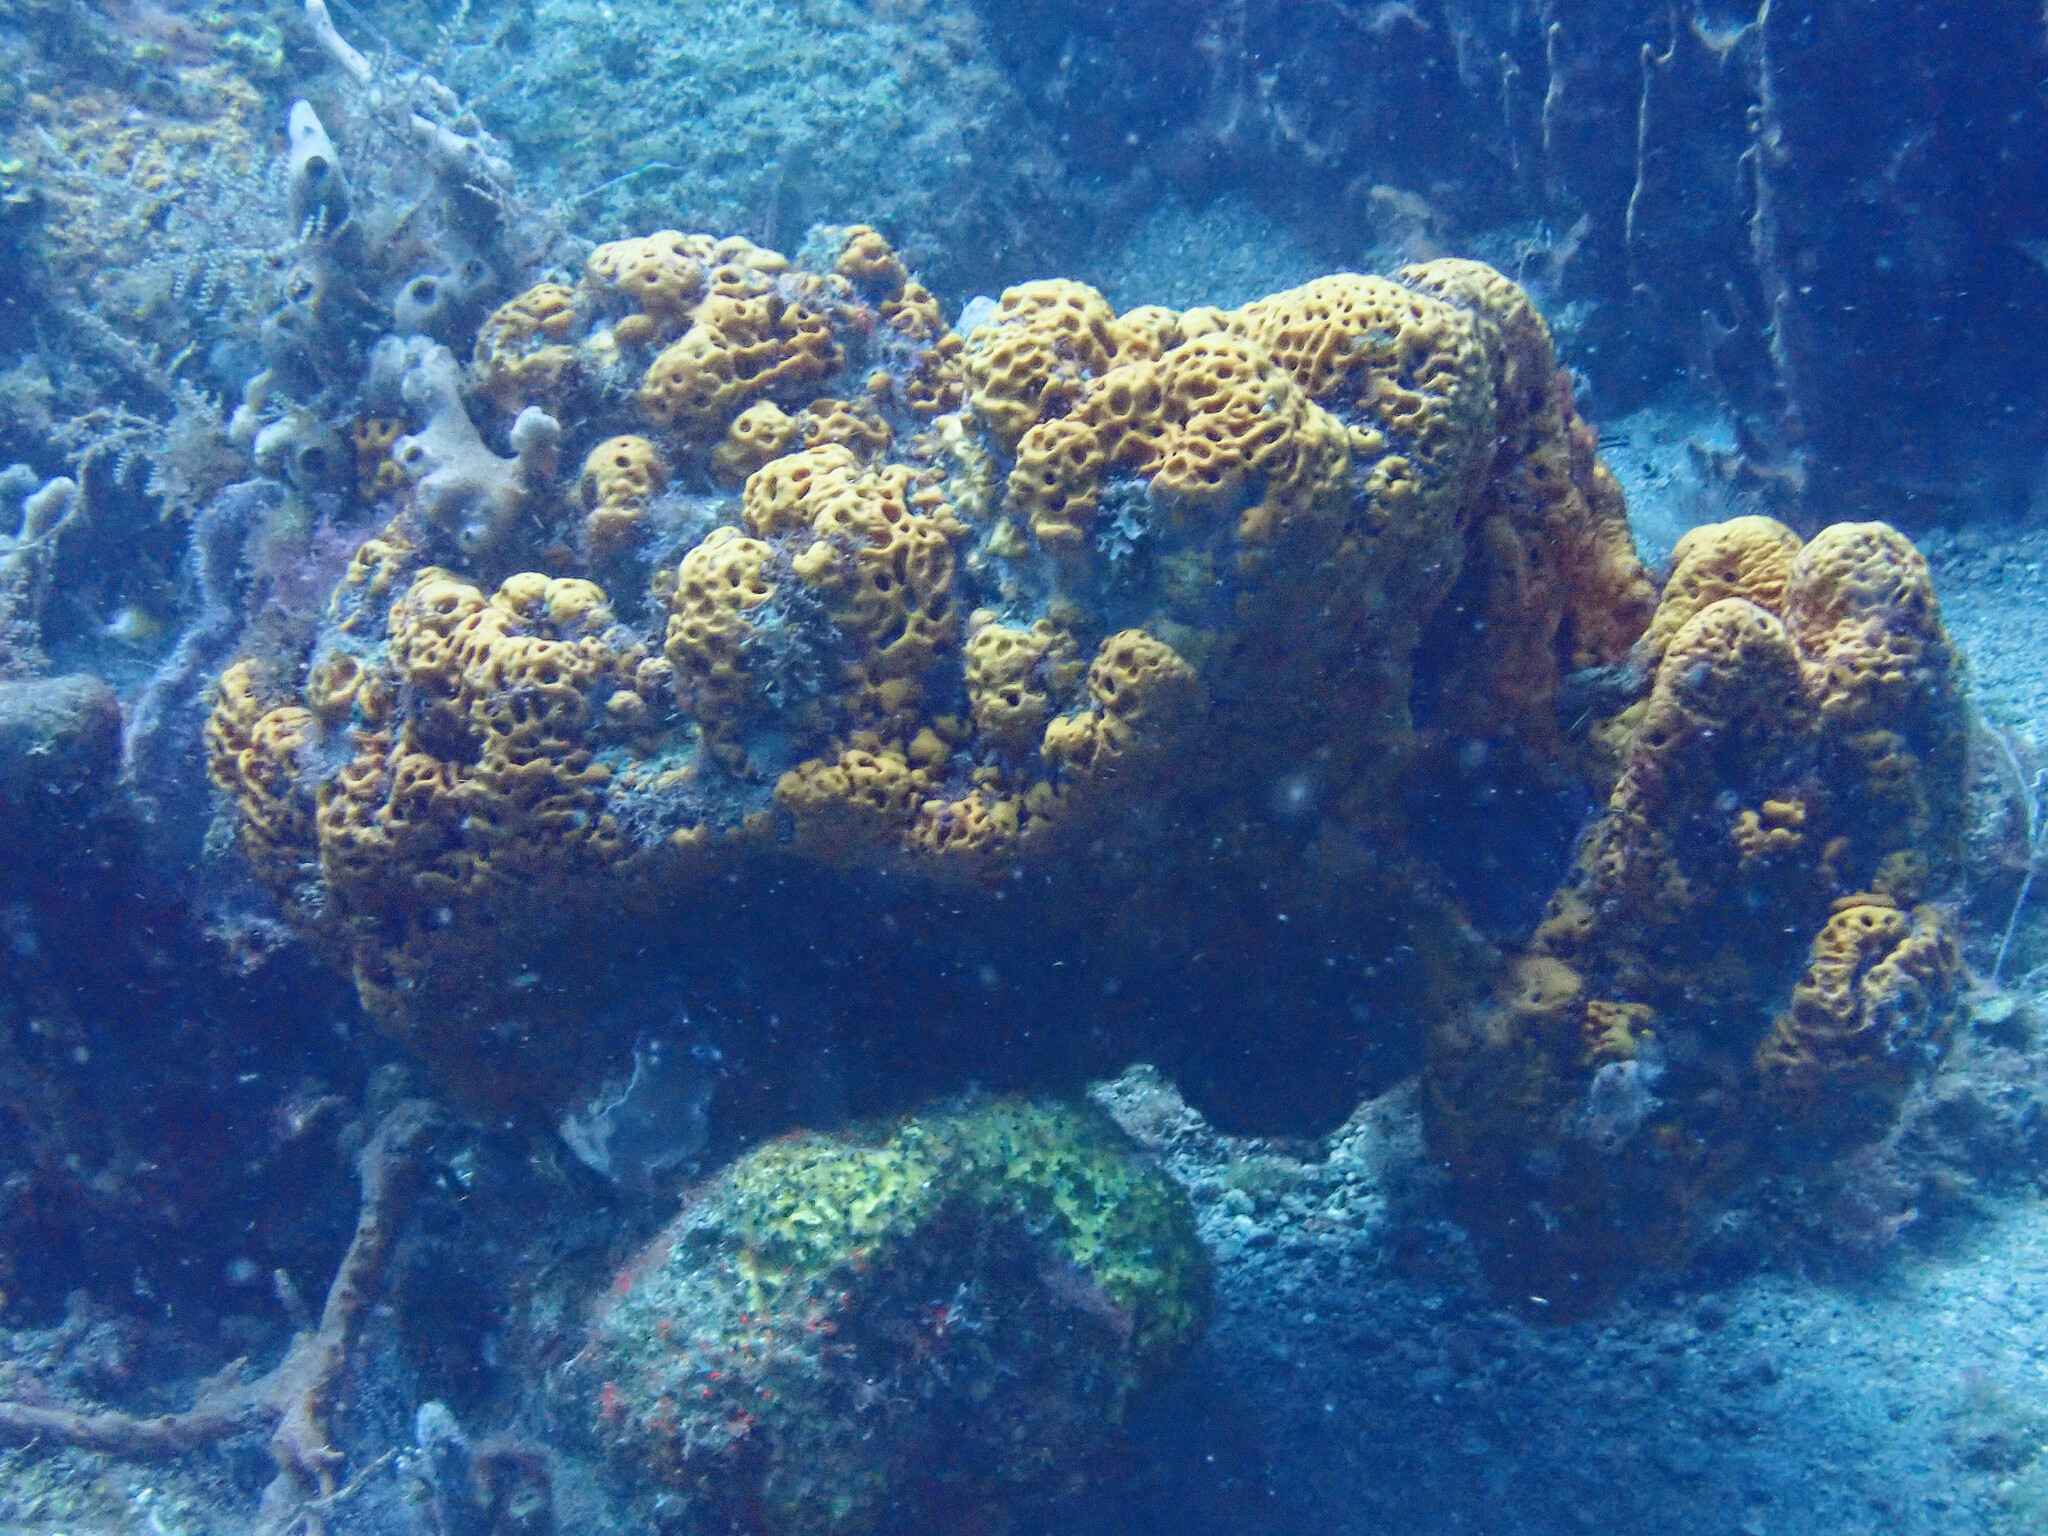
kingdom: Animalia
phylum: Porifera
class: Demospongiae
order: Agelasida
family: Agelasidae
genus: Agelas
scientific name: Agelas clathrodes
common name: Orange elephant ear sponge
